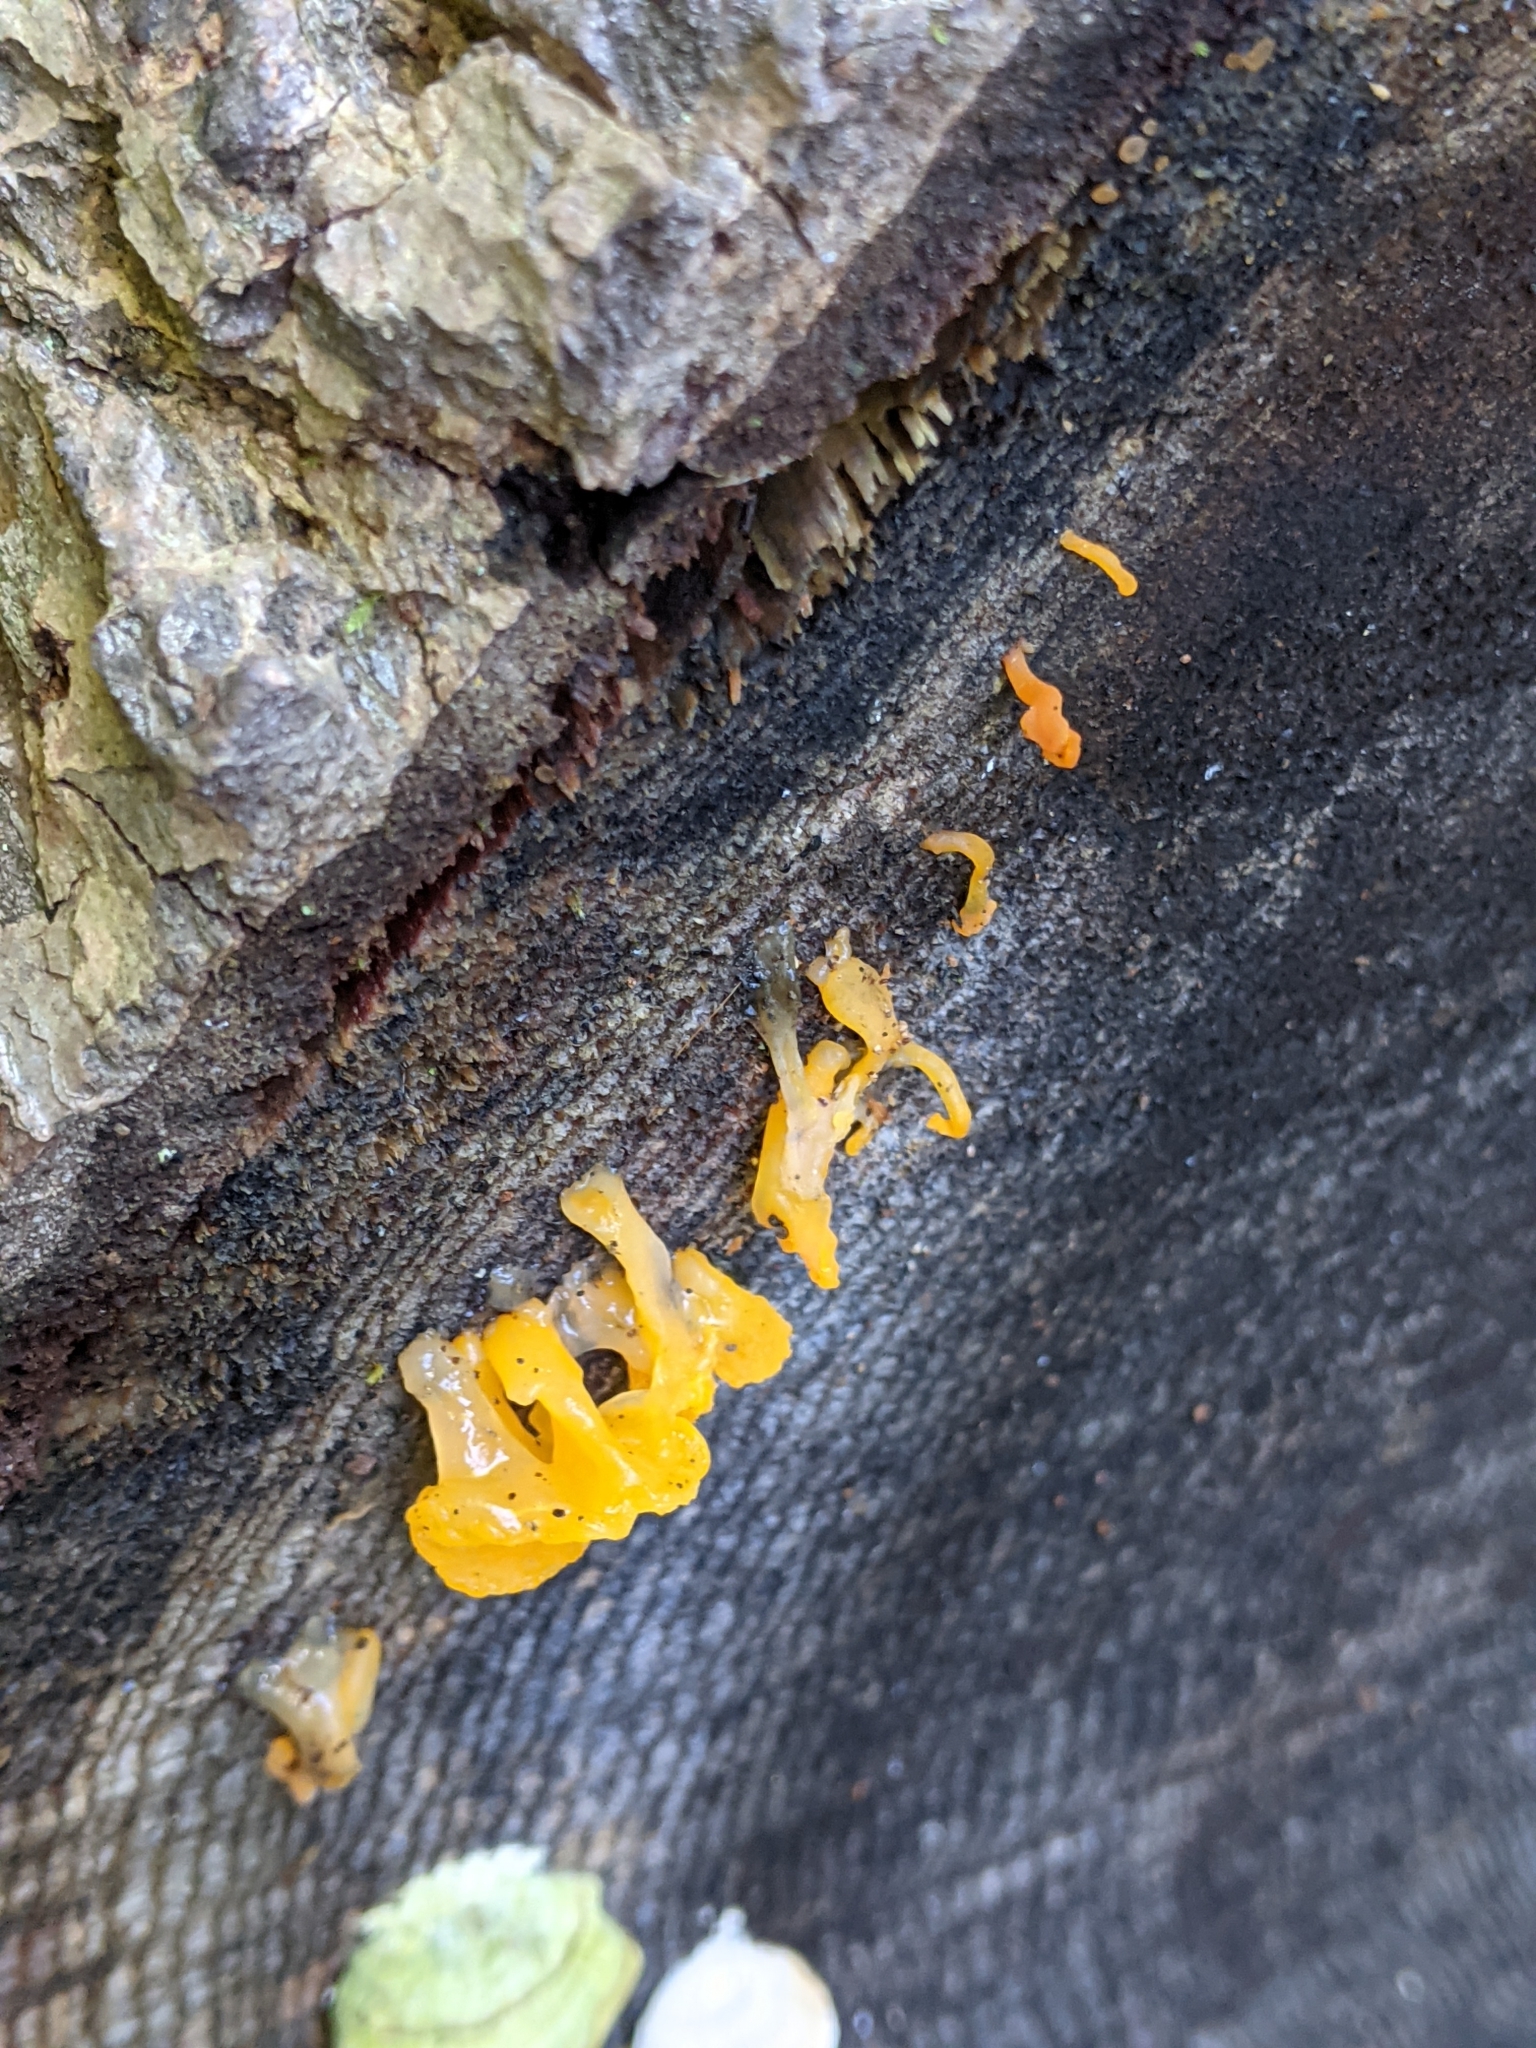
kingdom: Fungi
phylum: Basidiomycota
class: Dacrymycetes
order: Dacrymycetales
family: Dacrymycetaceae
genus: Dacrymyces
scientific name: Dacrymyces spathularius
